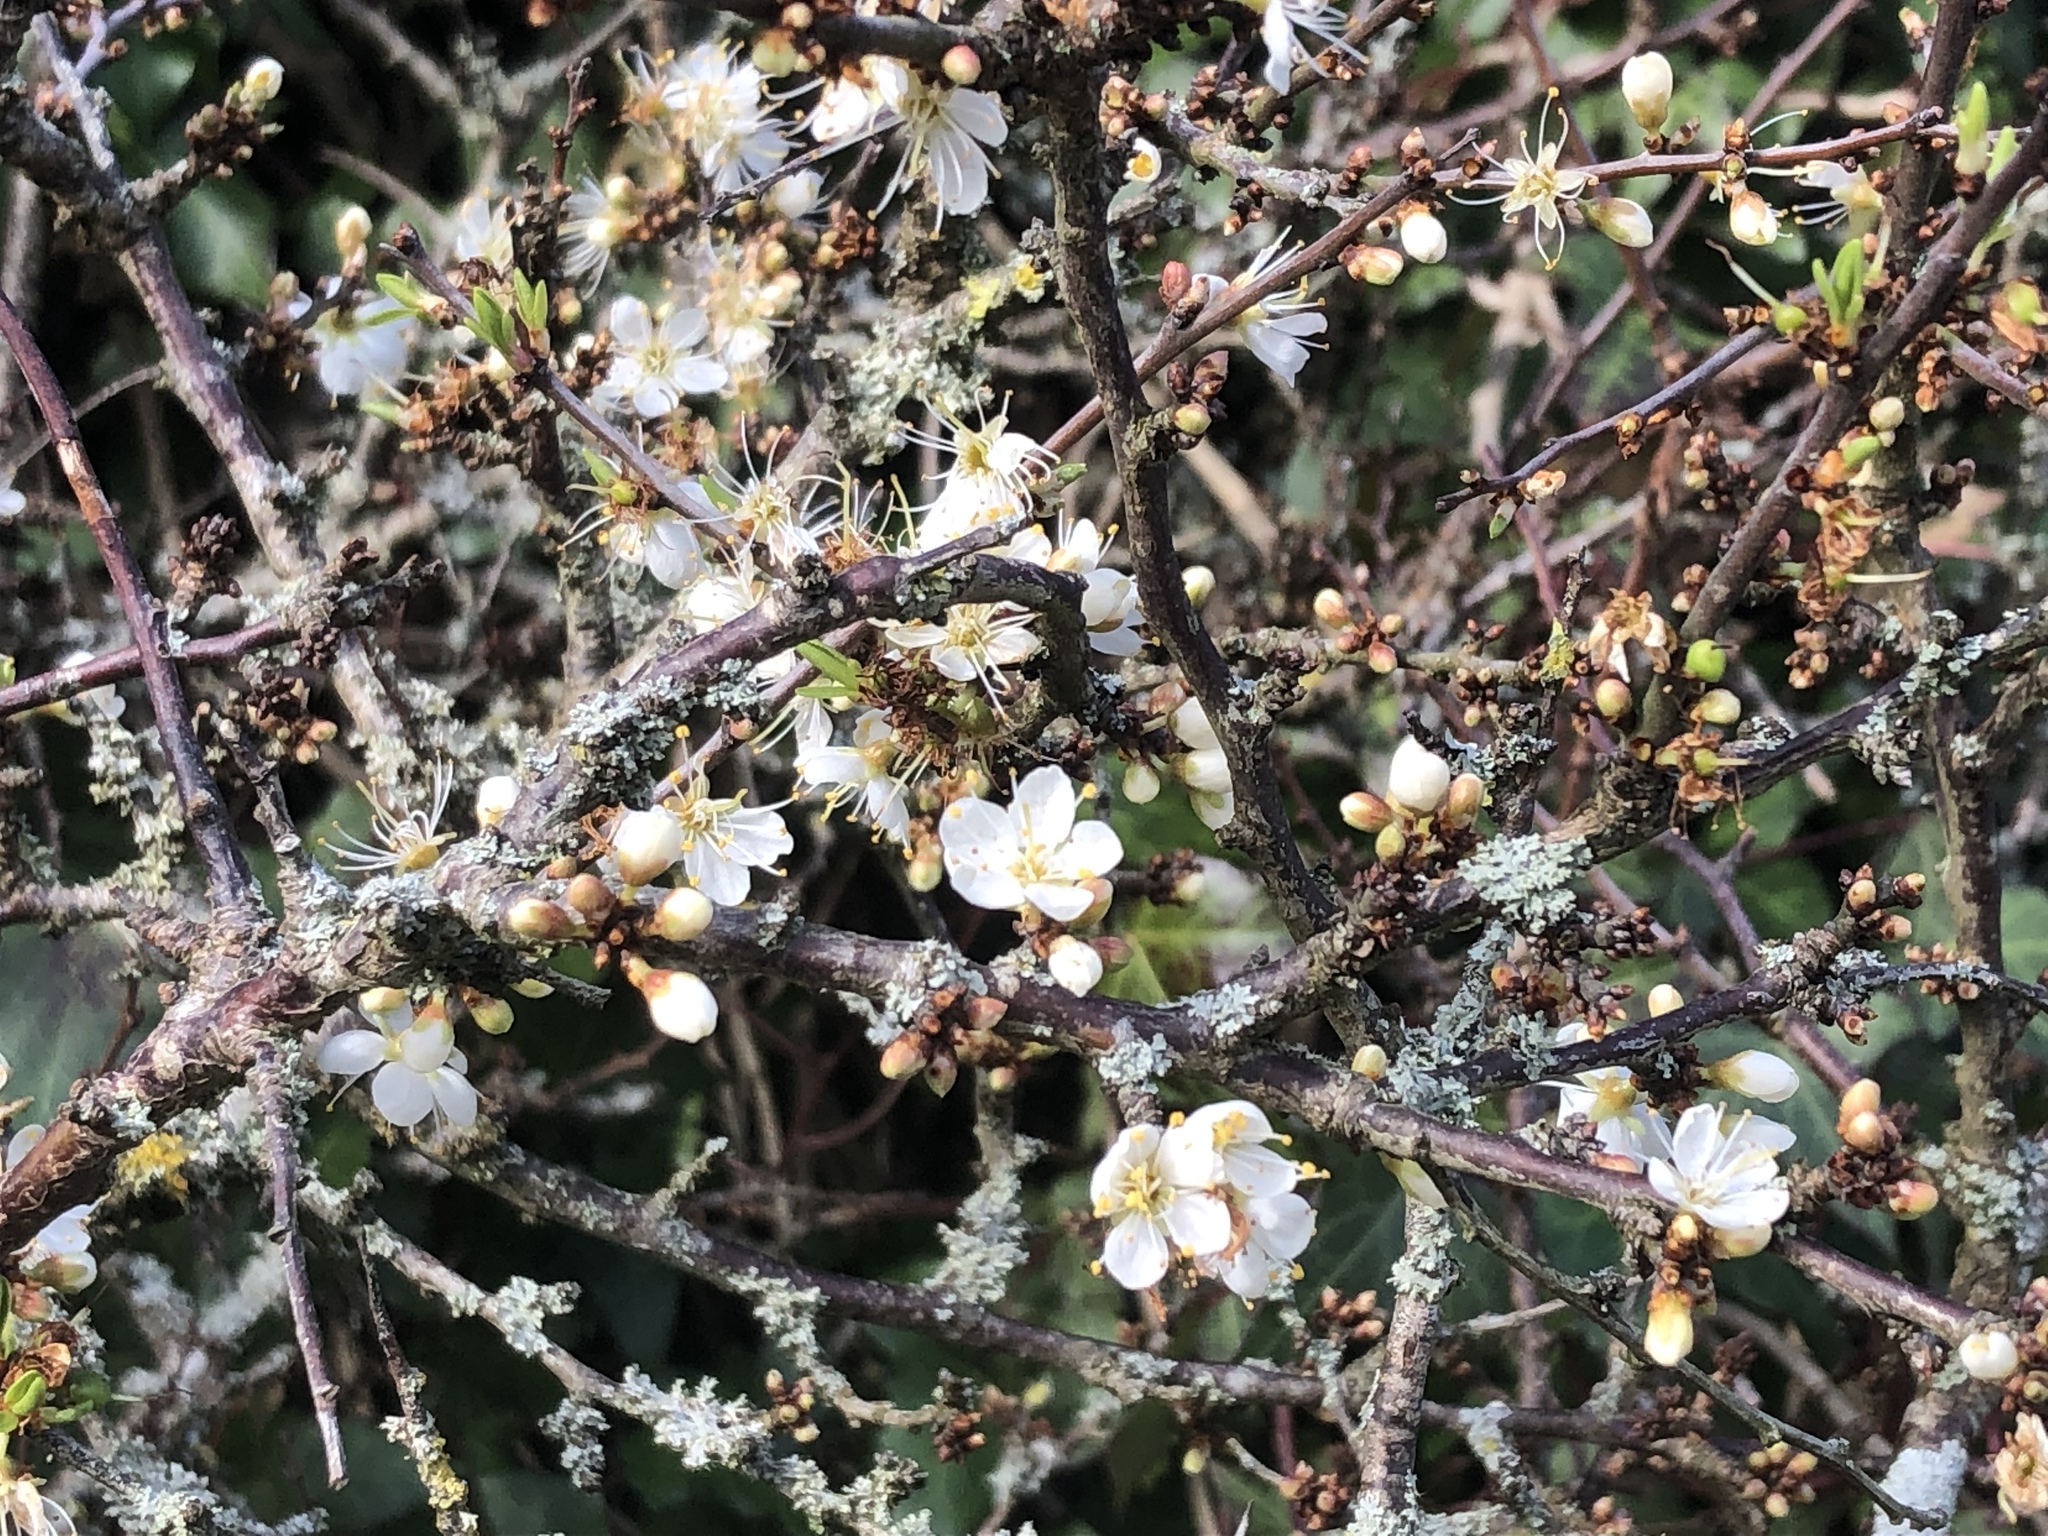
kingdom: Plantae
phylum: Tracheophyta
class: Magnoliopsida
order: Rosales
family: Rosaceae
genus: Prunus
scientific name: Prunus spinosa
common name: Blackthorn
